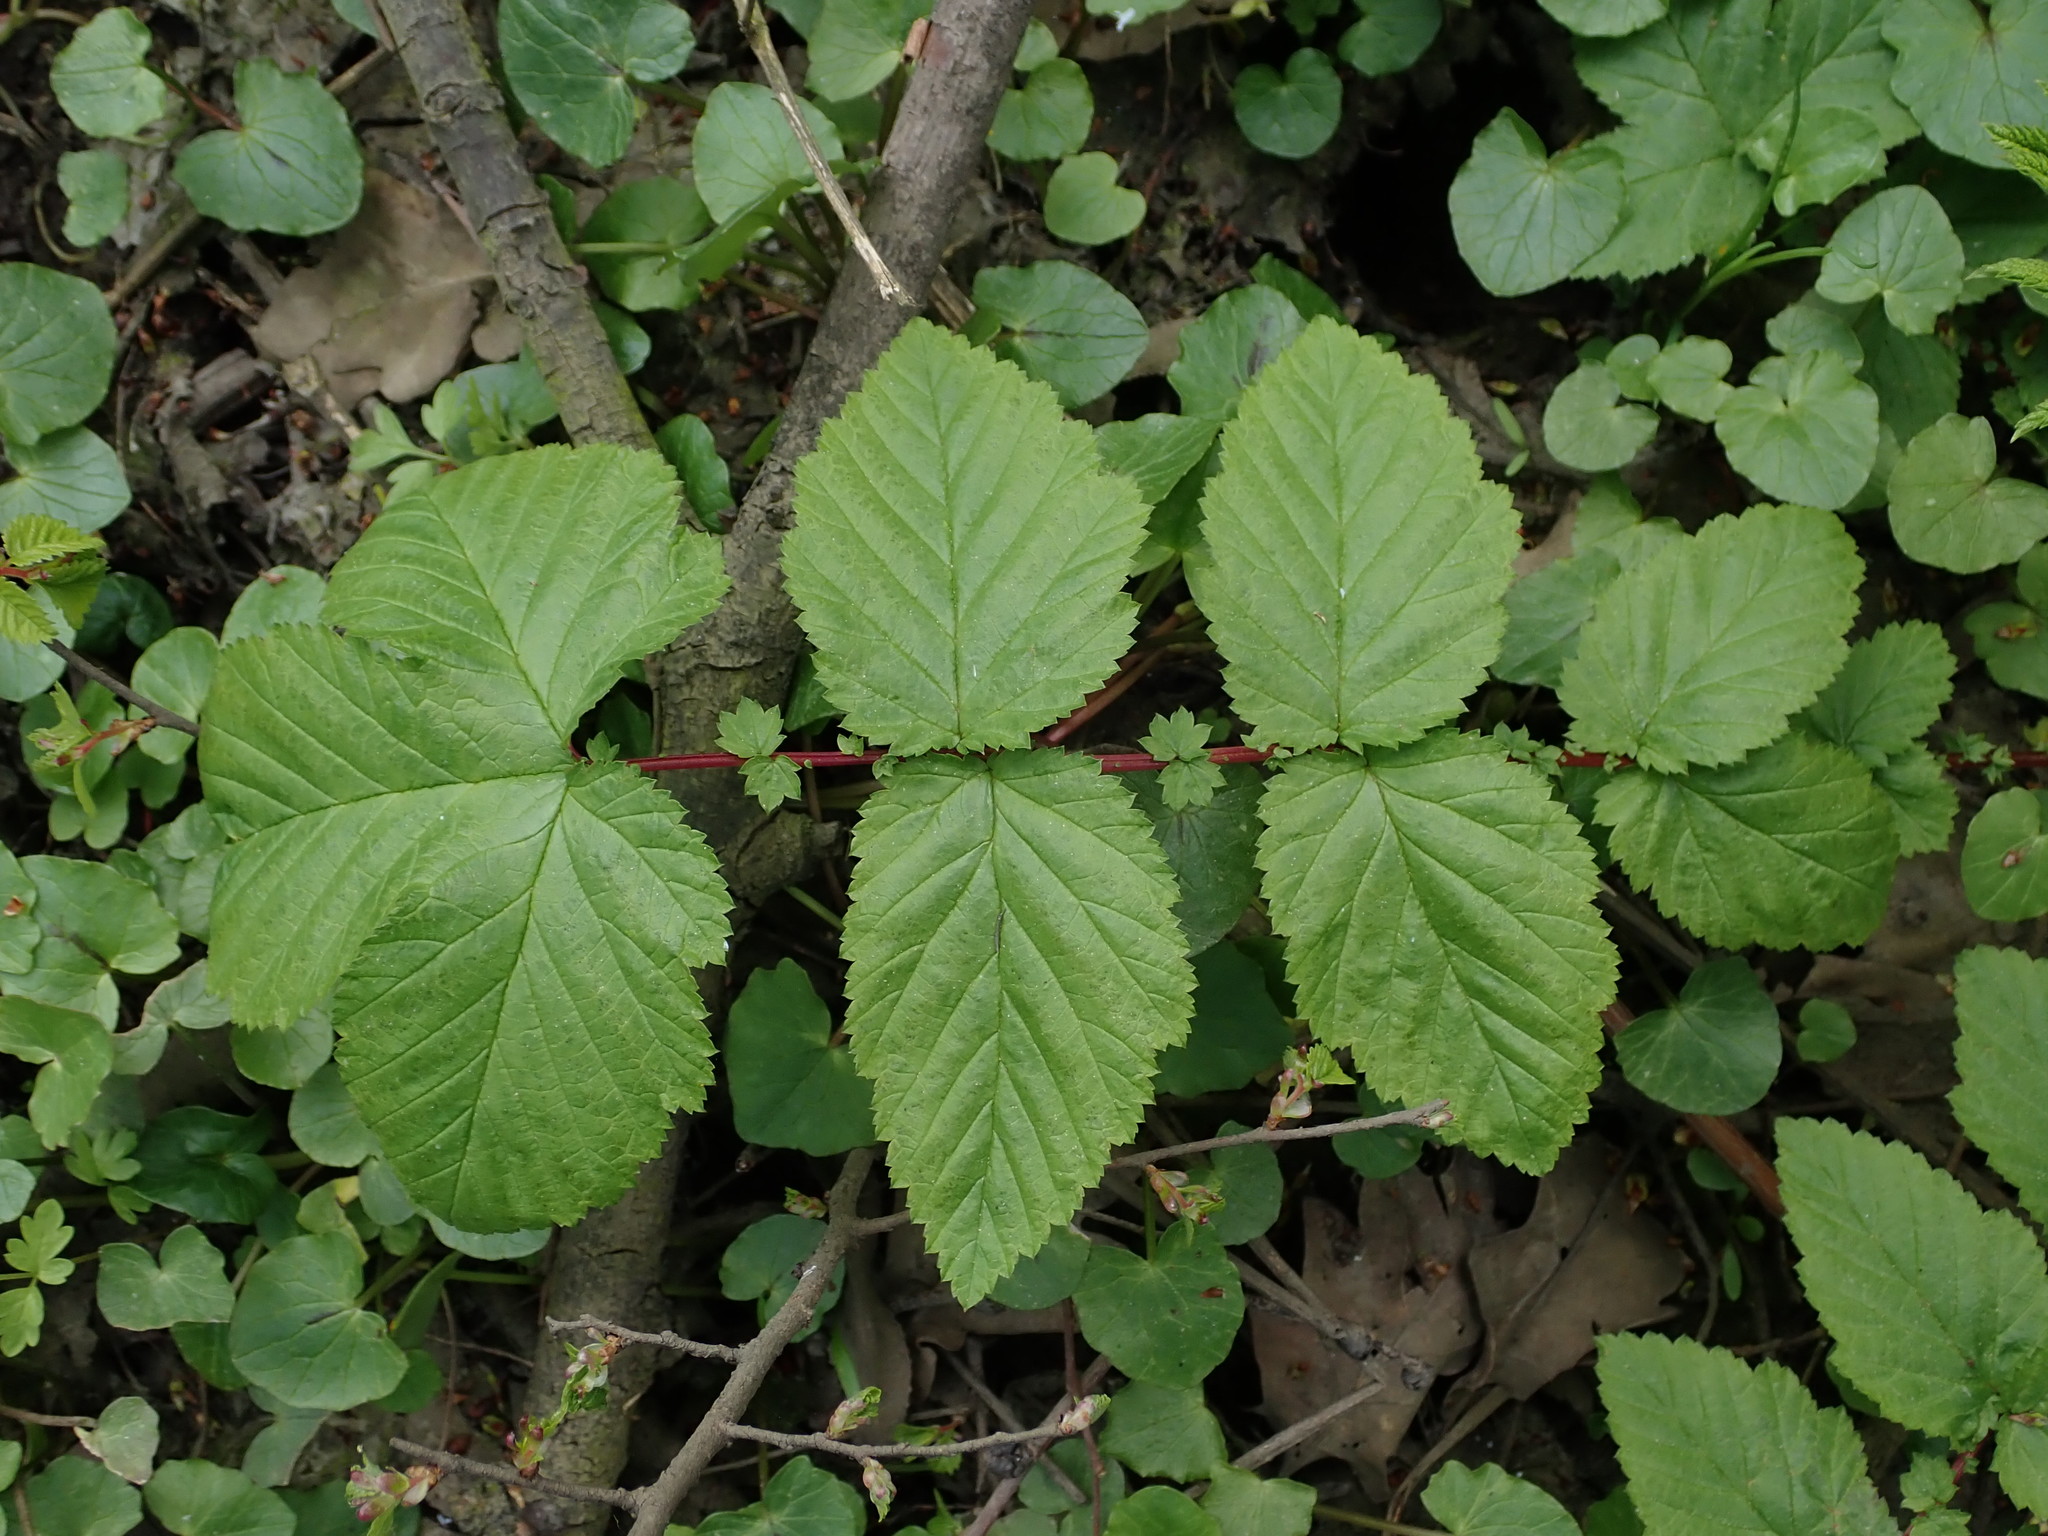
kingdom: Plantae
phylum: Tracheophyta
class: Magnoliopsida
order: Rosales
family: Rosaceae
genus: Filipendula
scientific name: Filipendula ulmaria
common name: Meadowsweet
